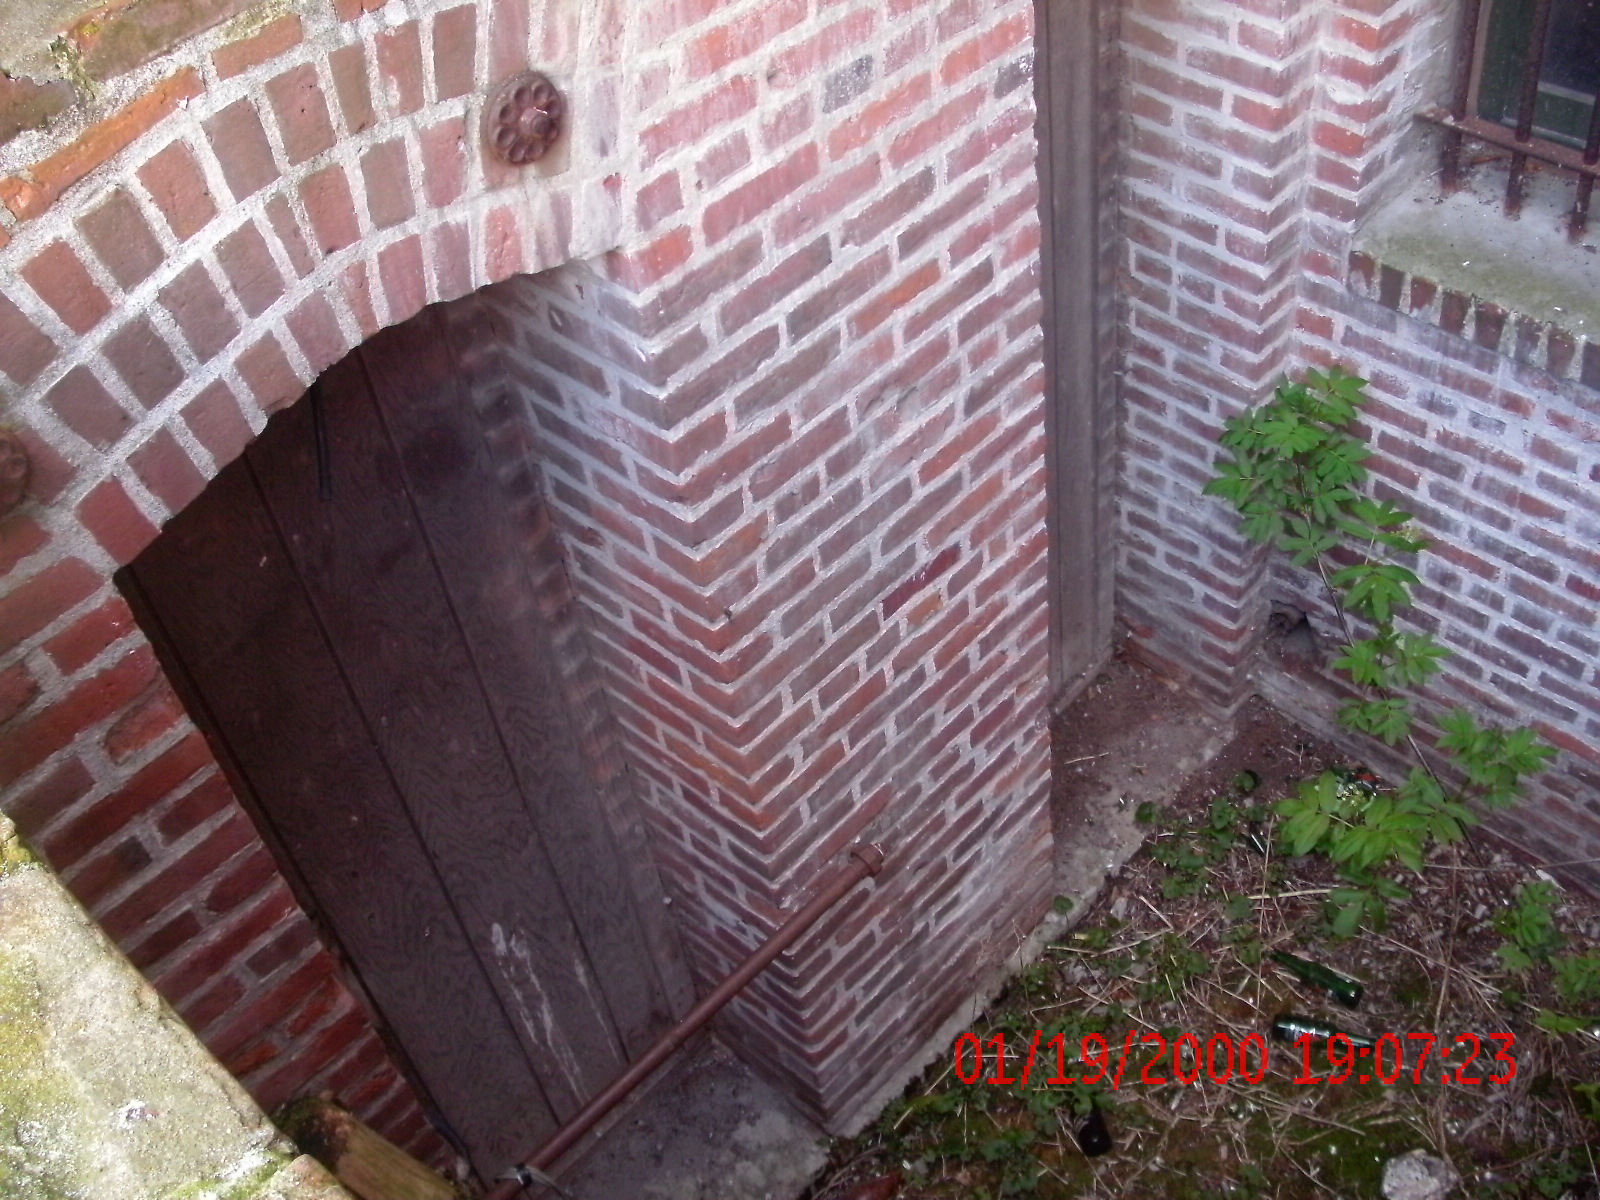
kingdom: Plantae
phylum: Tracheophyta
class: Magnoliopsida
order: Dipsacales
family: Viburnaceae
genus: Sambucus
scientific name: Sambucus racemosa
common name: Red-berried elder
